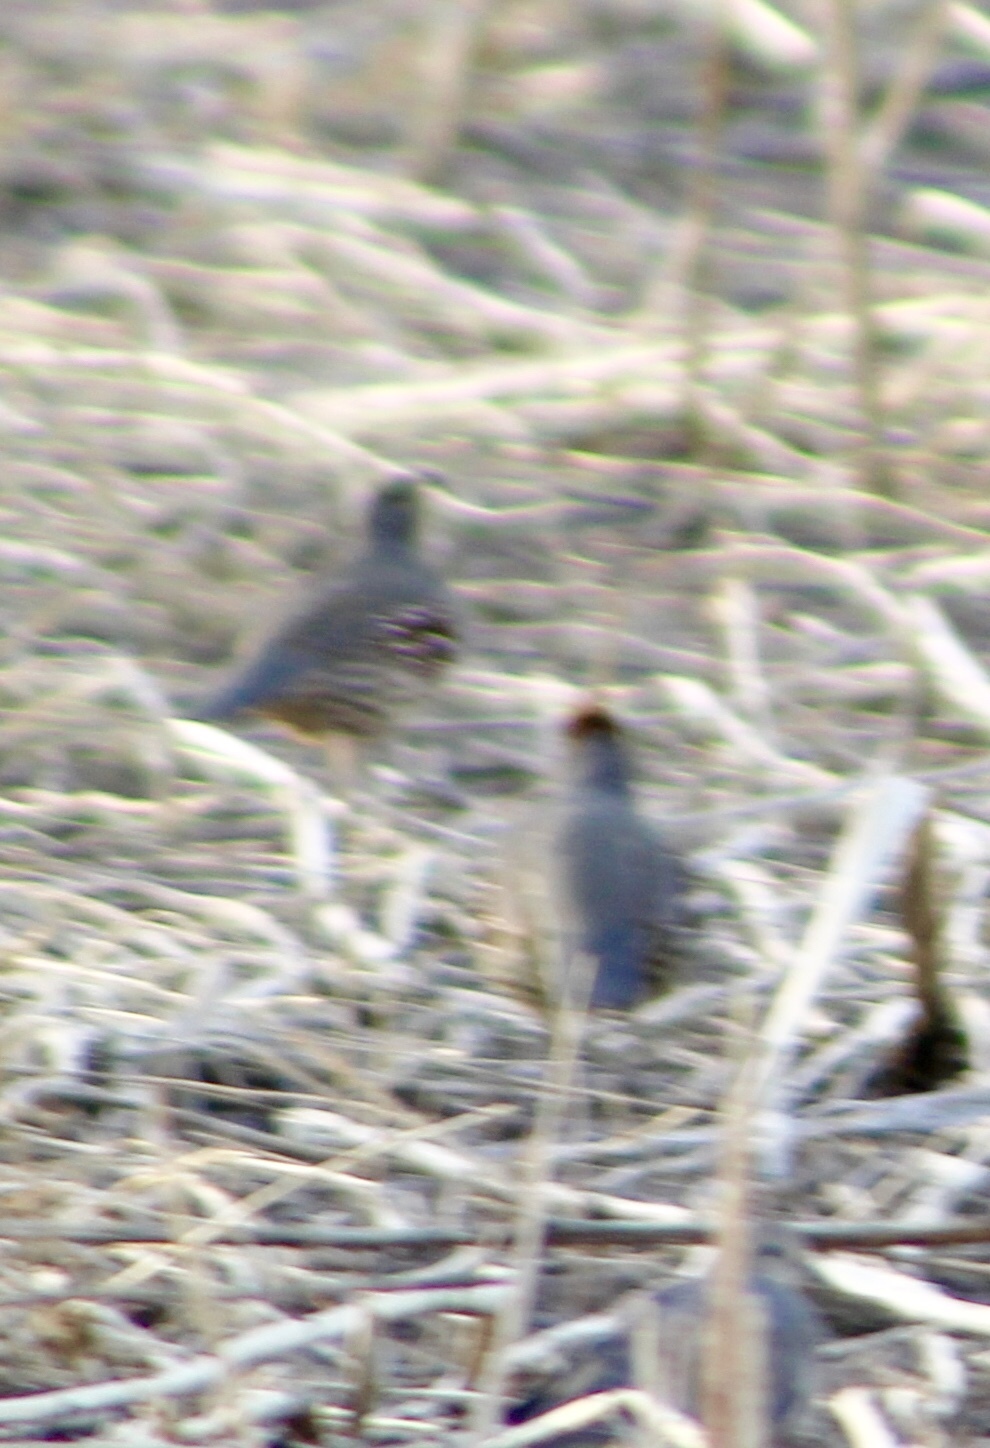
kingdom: Animalia
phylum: Chordata
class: Aves
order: Galliformes
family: Odontophoridae
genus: Callipepla
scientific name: Callipepla gambelii
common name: Gambel's quail
